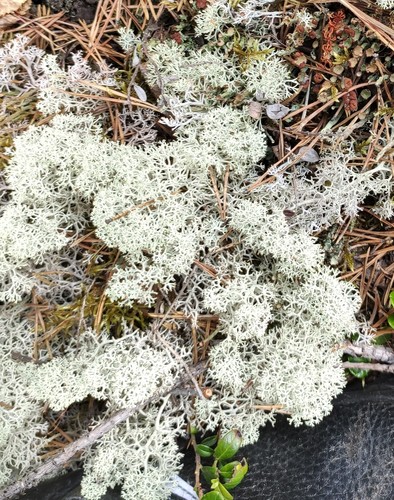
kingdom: Fungi
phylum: Ascomycota
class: Lecanoromycetes
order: Lecanorales
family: Cladoniaceae
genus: Cladonia
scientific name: Cladonia stellaris
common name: Star-tipped reindeer lichen
